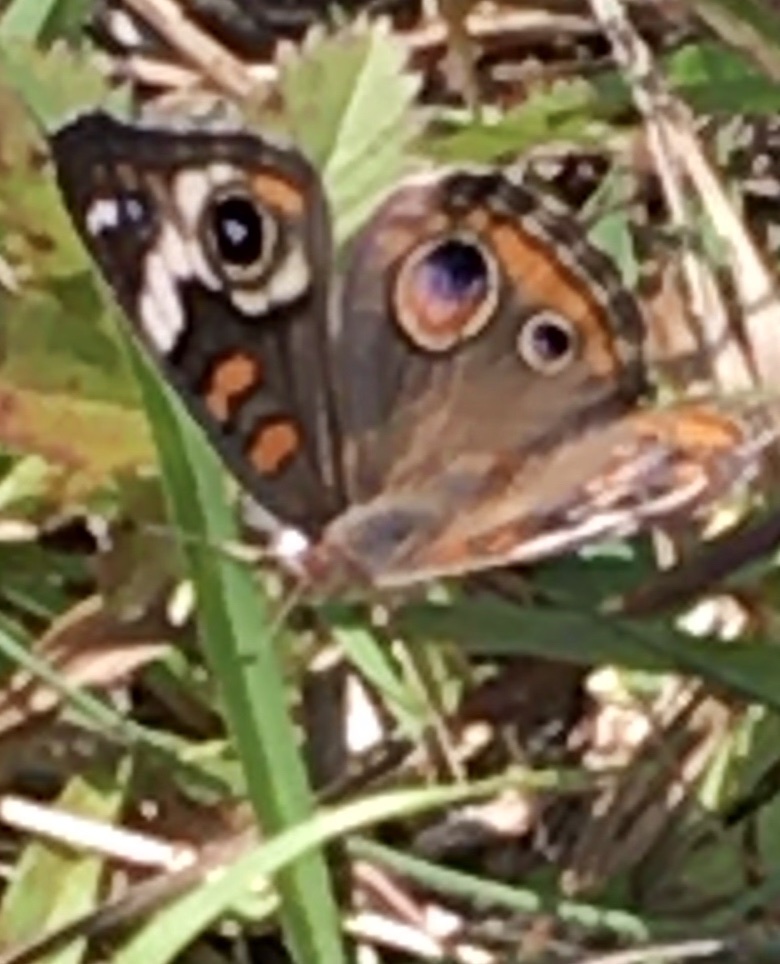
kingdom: Animalia
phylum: Arthropoda
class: Insecta
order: Lepidoptera
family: Nymphalidae
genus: Junonia
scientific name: Junonia coenia
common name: Common buckeye
